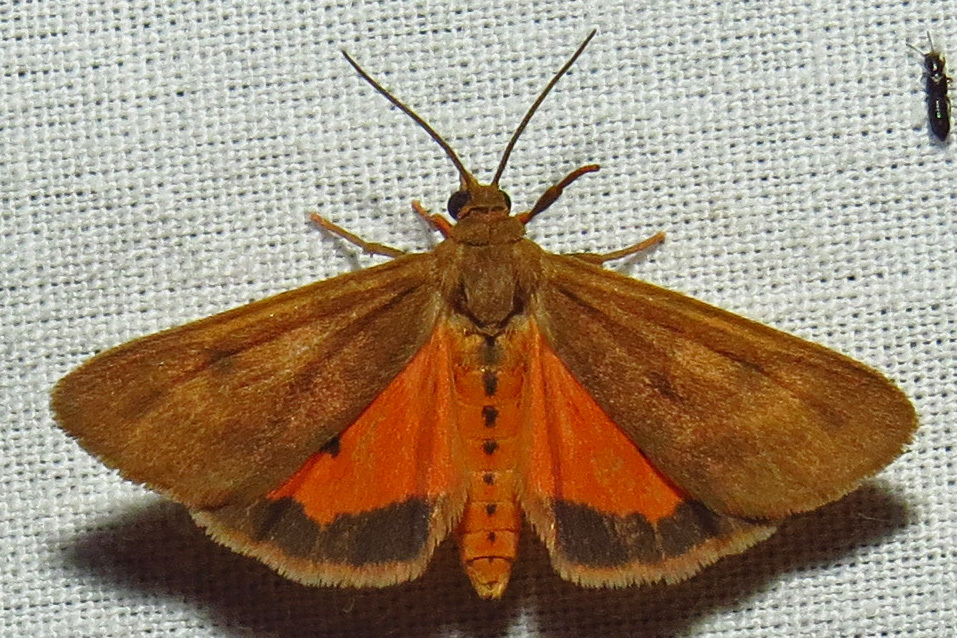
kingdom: Animalia
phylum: Arthropoda
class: Insecta
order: Lepidoptera
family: Erebidae
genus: Virbia
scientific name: Virbia aurantiaca
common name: Orange virbia moth
